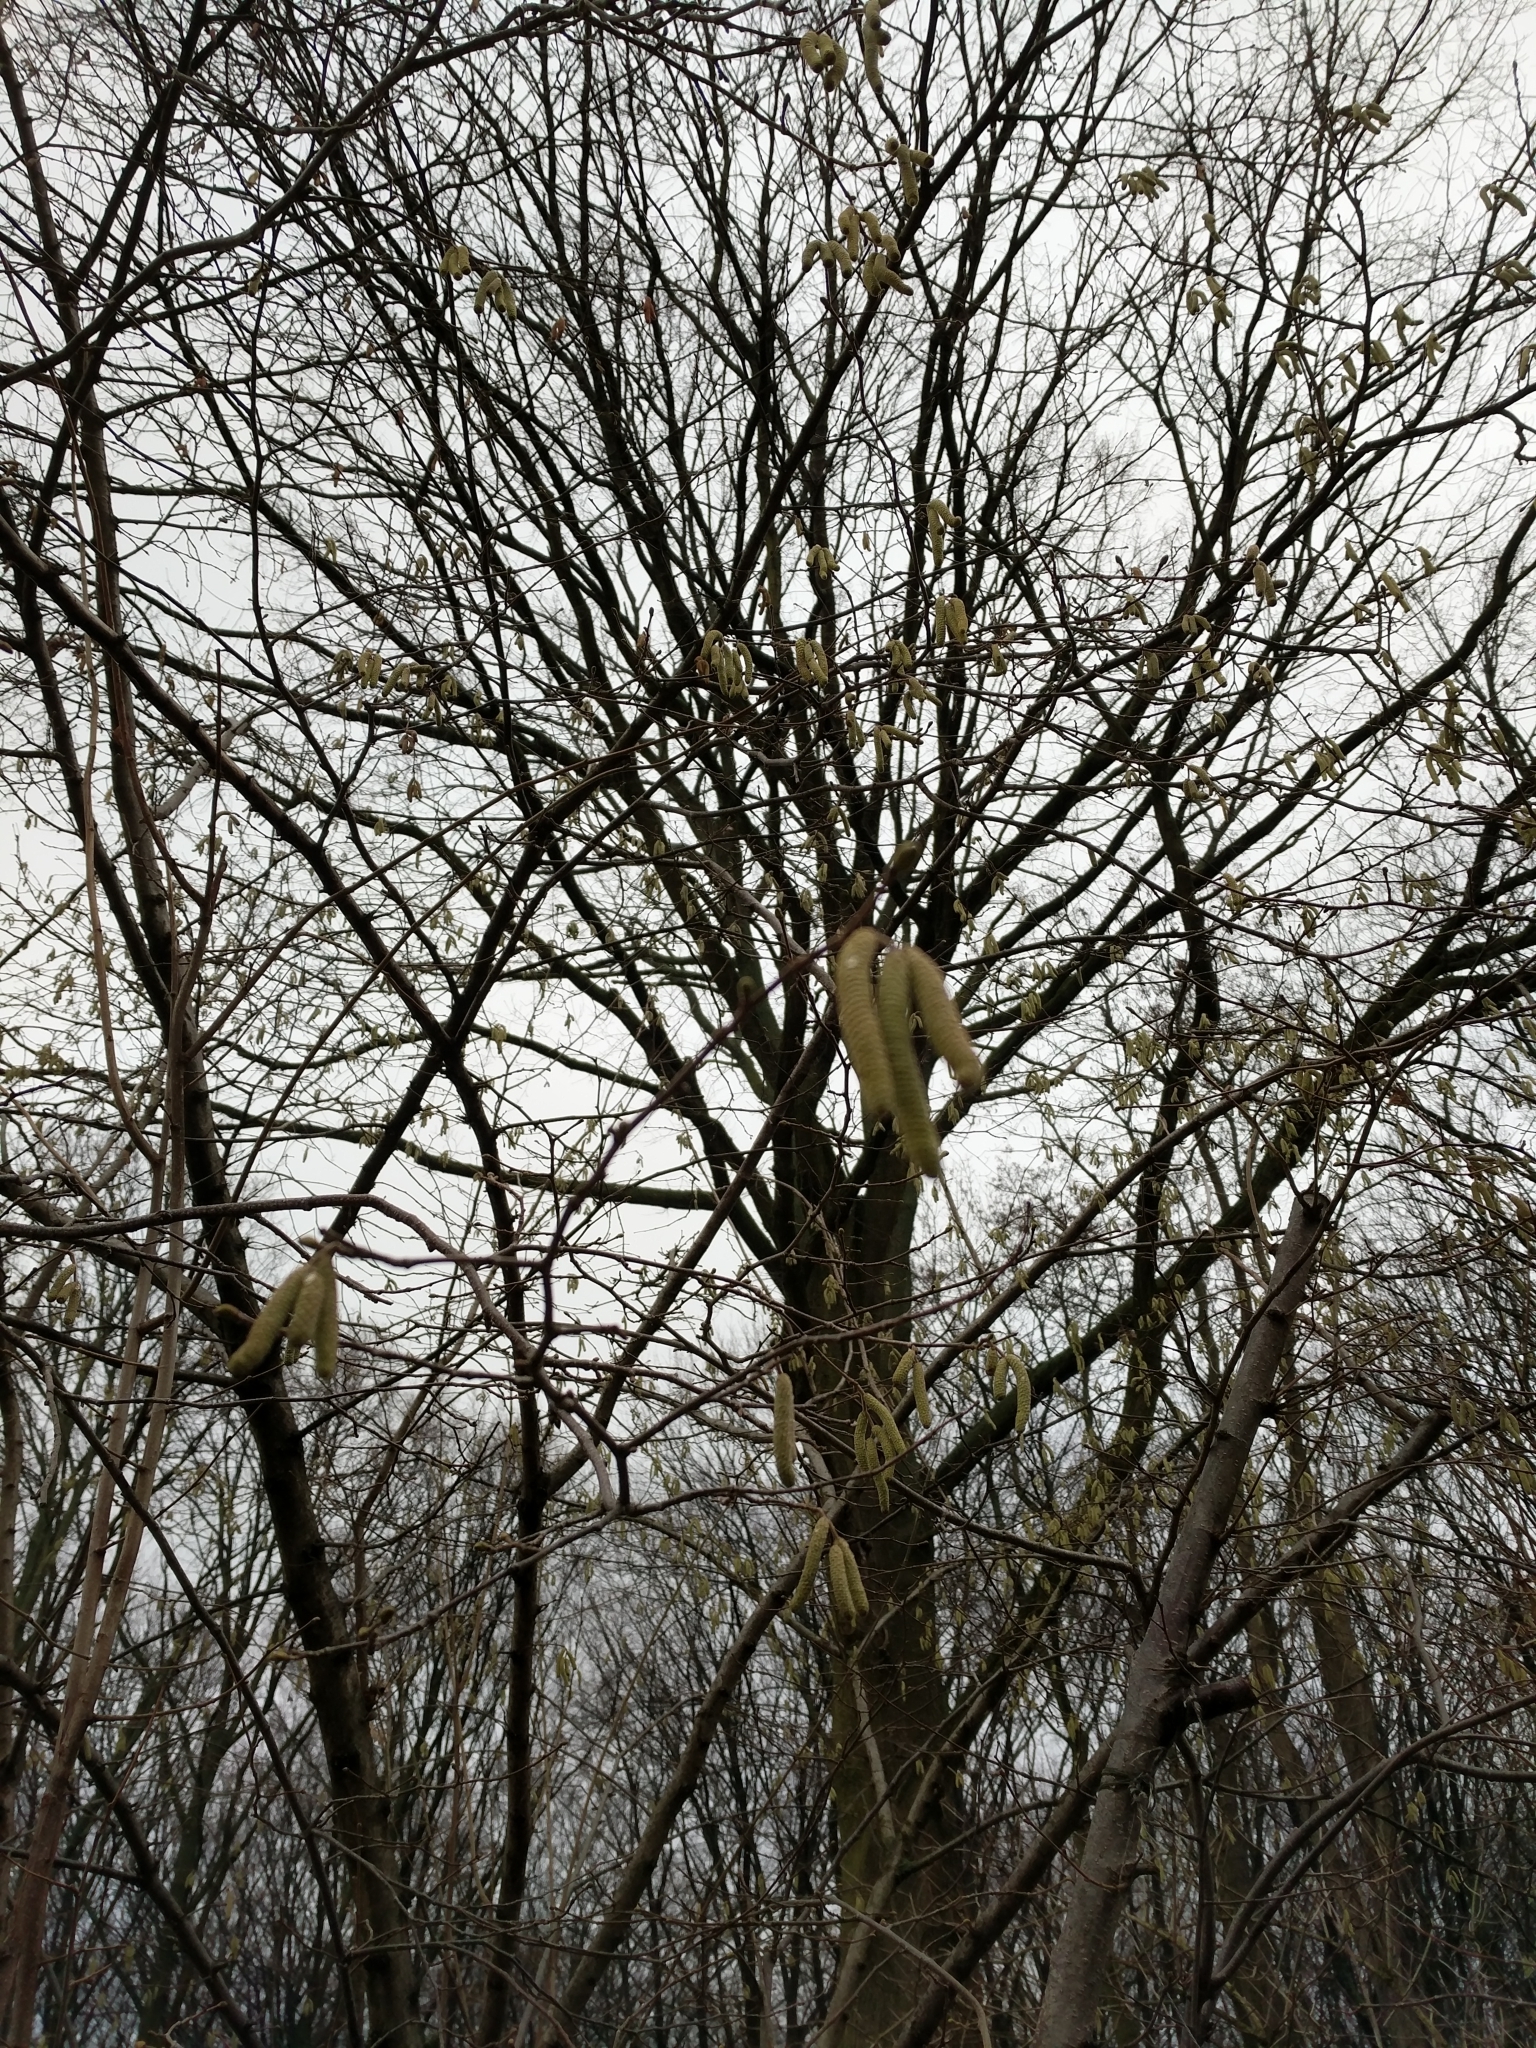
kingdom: Plantae
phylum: Tracheophyta
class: Magnoliopsida
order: Fagales
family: Betulaceae
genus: Corylus
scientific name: Corylus avellana
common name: European hazel
